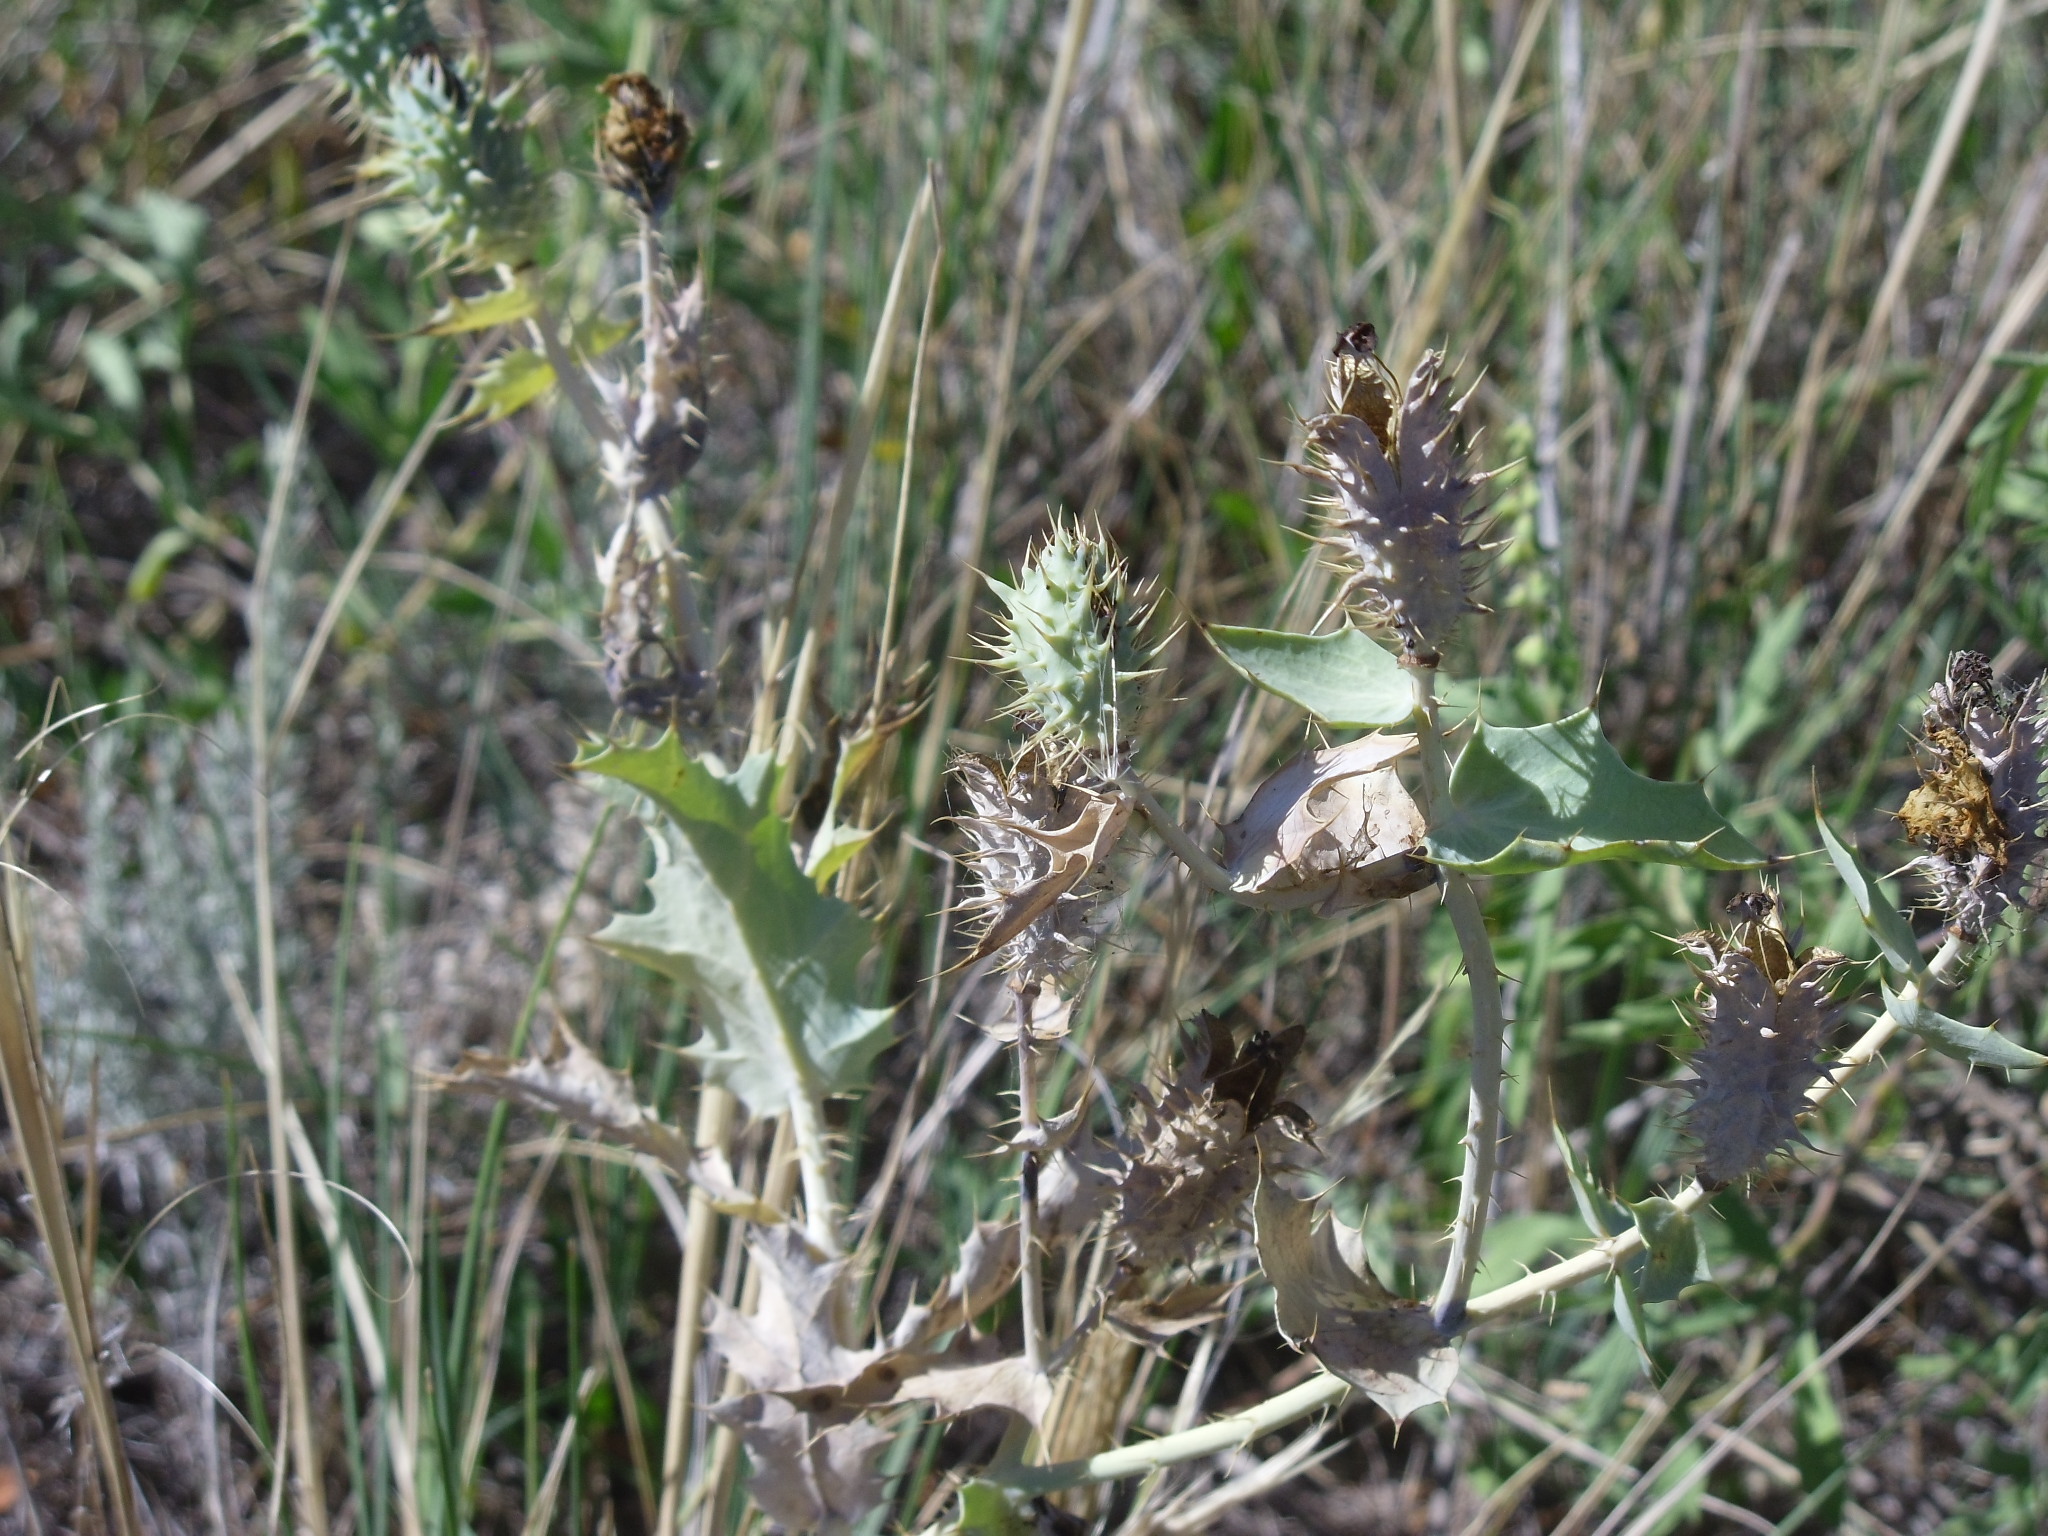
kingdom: Plantae
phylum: Tracheophyta
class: Magnoliopsida
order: Ranunculales
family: Papaveraceae
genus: Argemone
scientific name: Argemone polyanthemos
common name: Plains prickly-poppy
